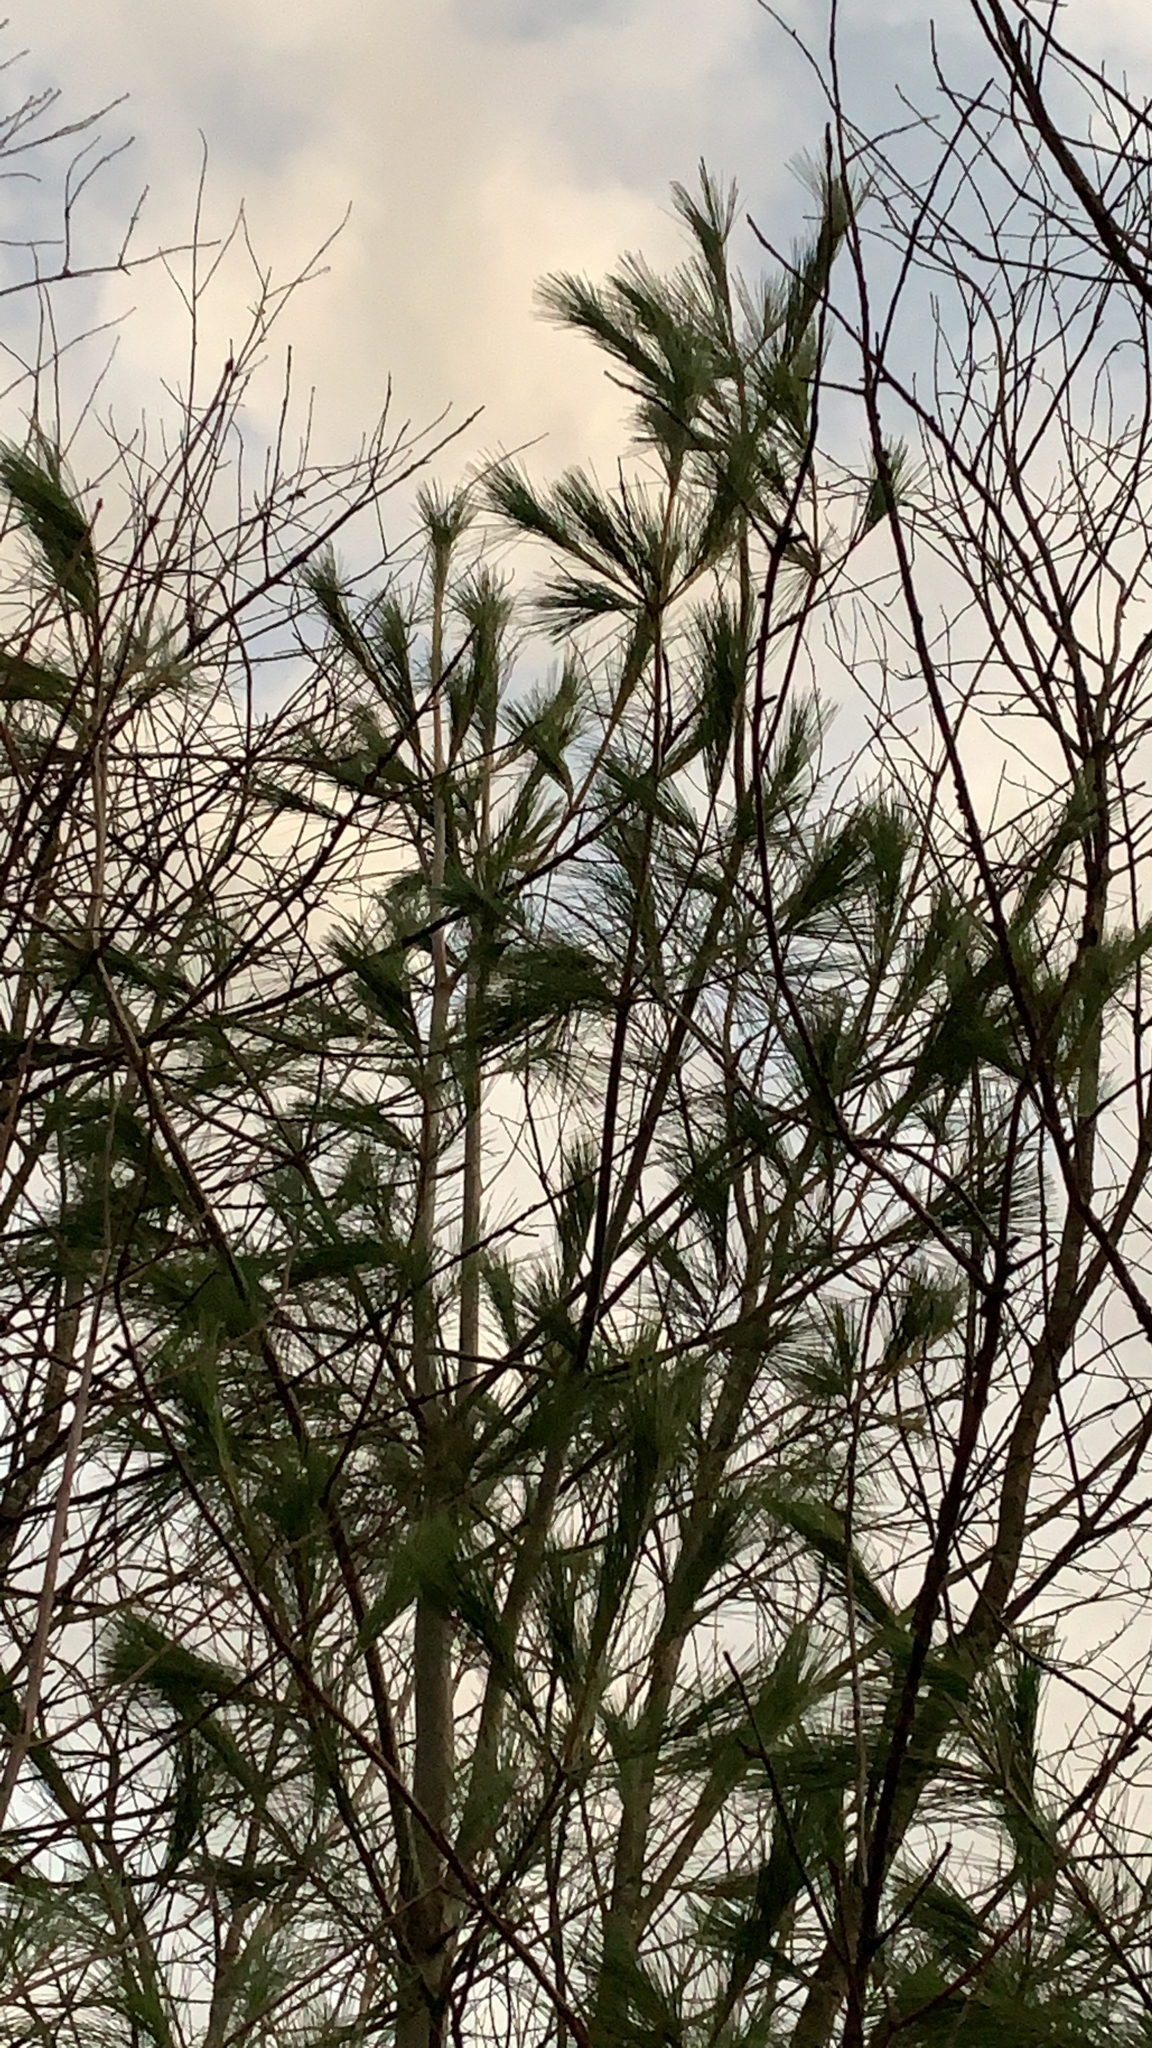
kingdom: Plantae
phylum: Tracheophyta
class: Pinopsida
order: Pinales
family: Pinaceae
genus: Pinus
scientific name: Pinus strobus
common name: Weymouth pine
